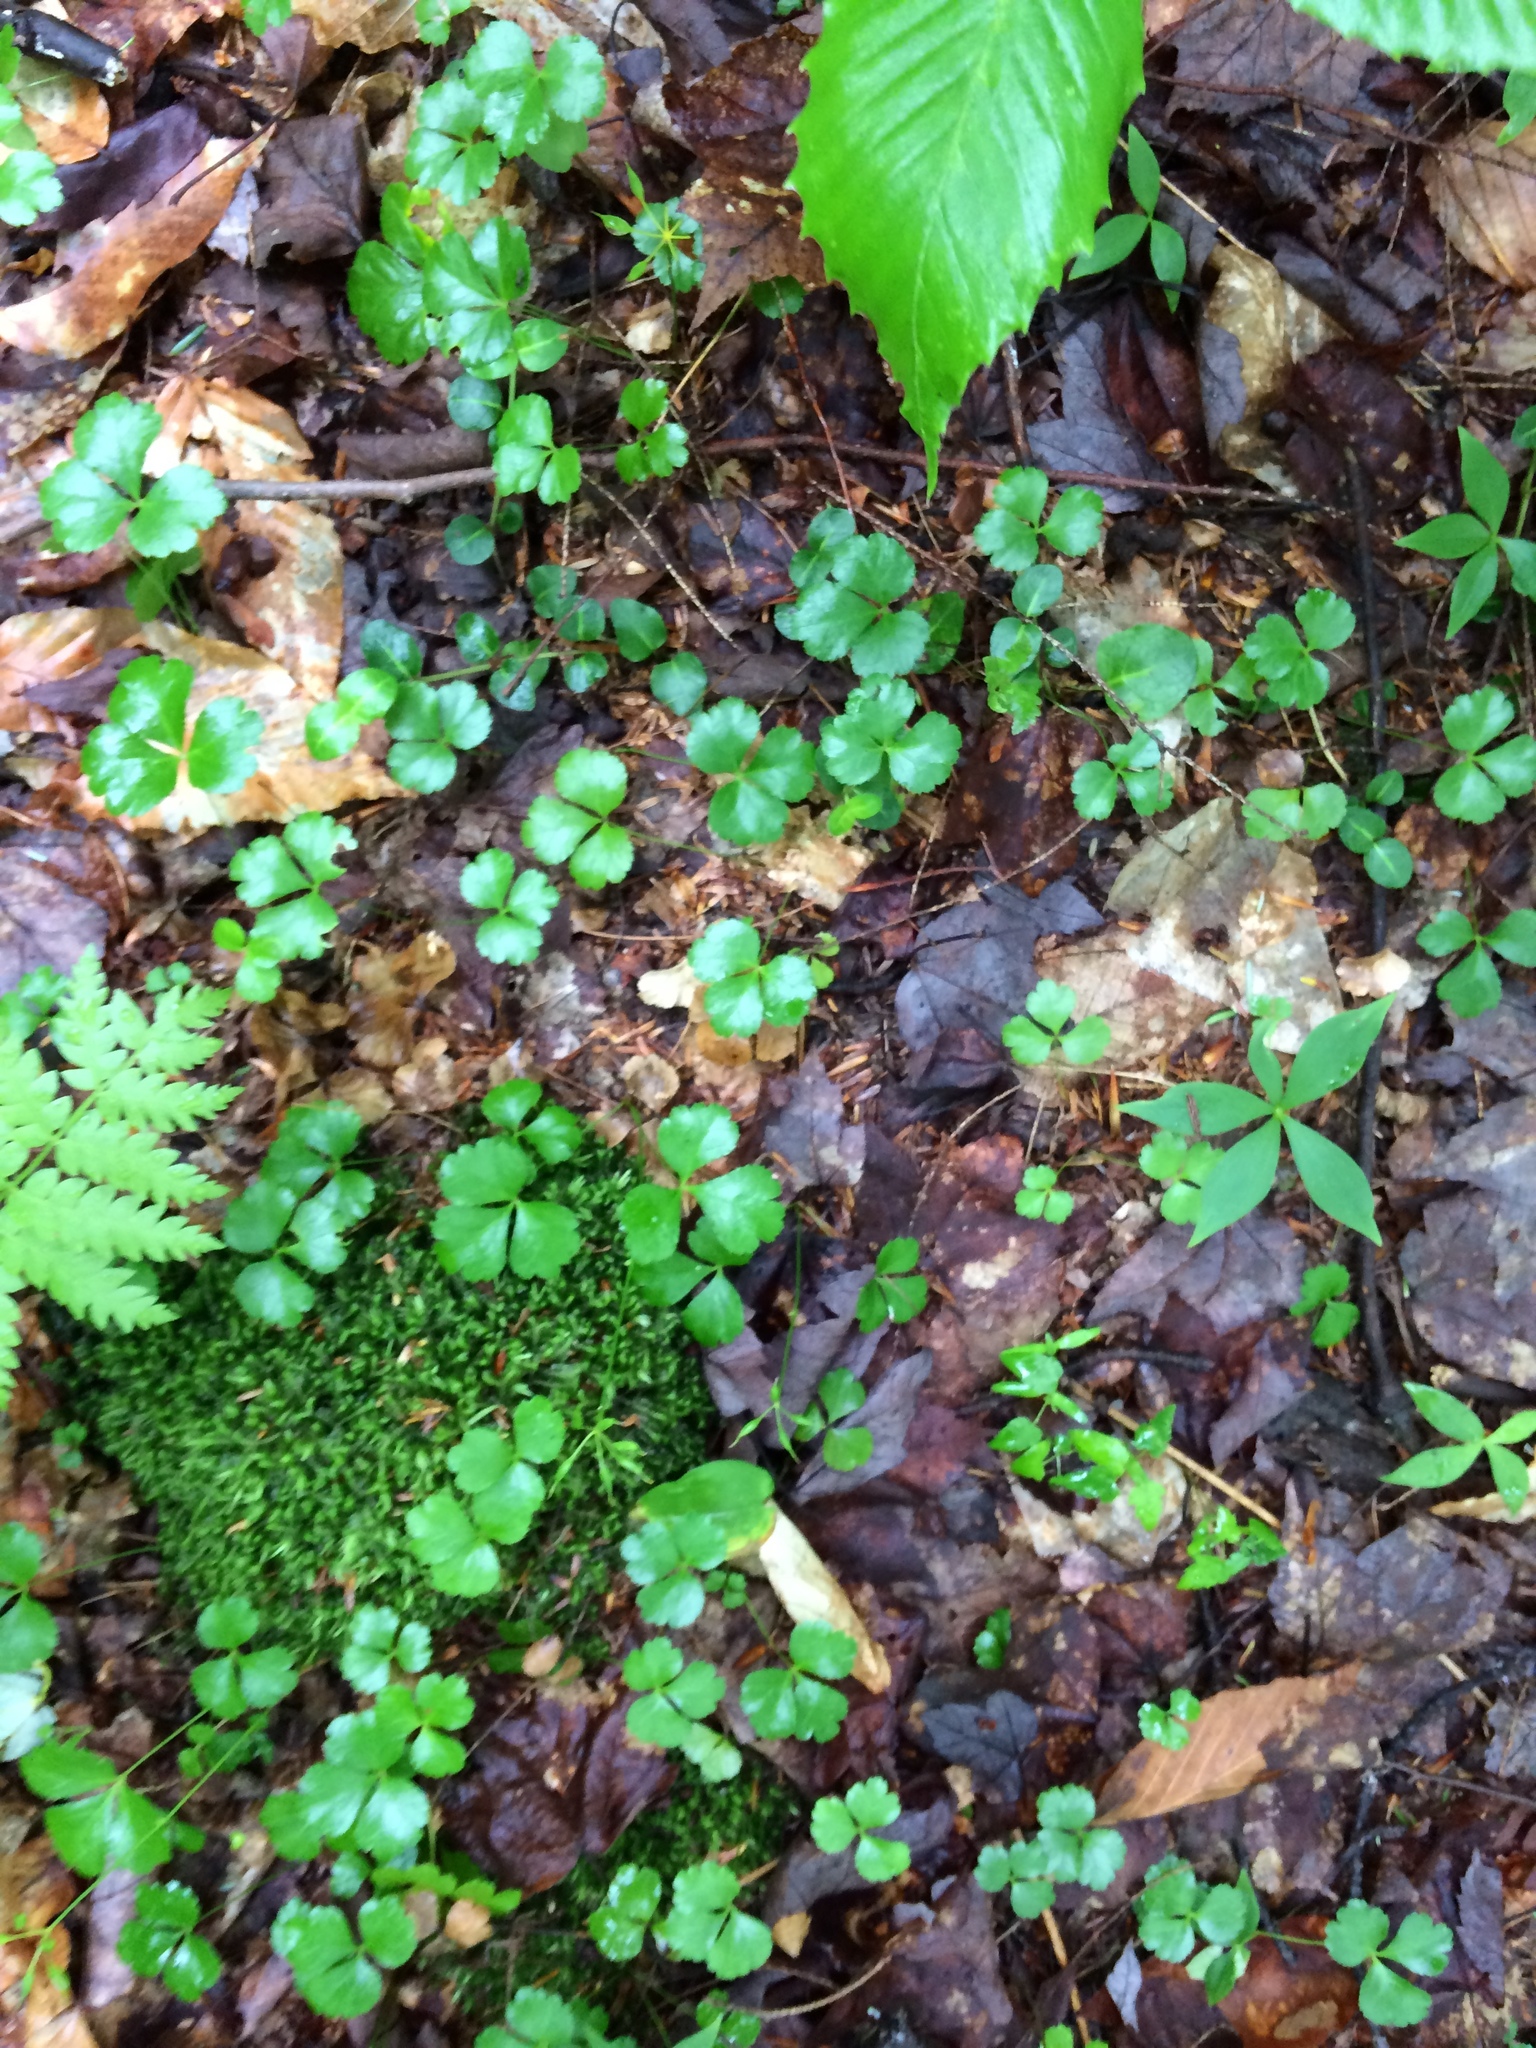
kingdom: Plantae
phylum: Tracheophyta
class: Magnoliopsida
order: Ranunculales
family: Ranunculaceae
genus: Coptis
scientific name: Coptis trifolia
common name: Canker-root
